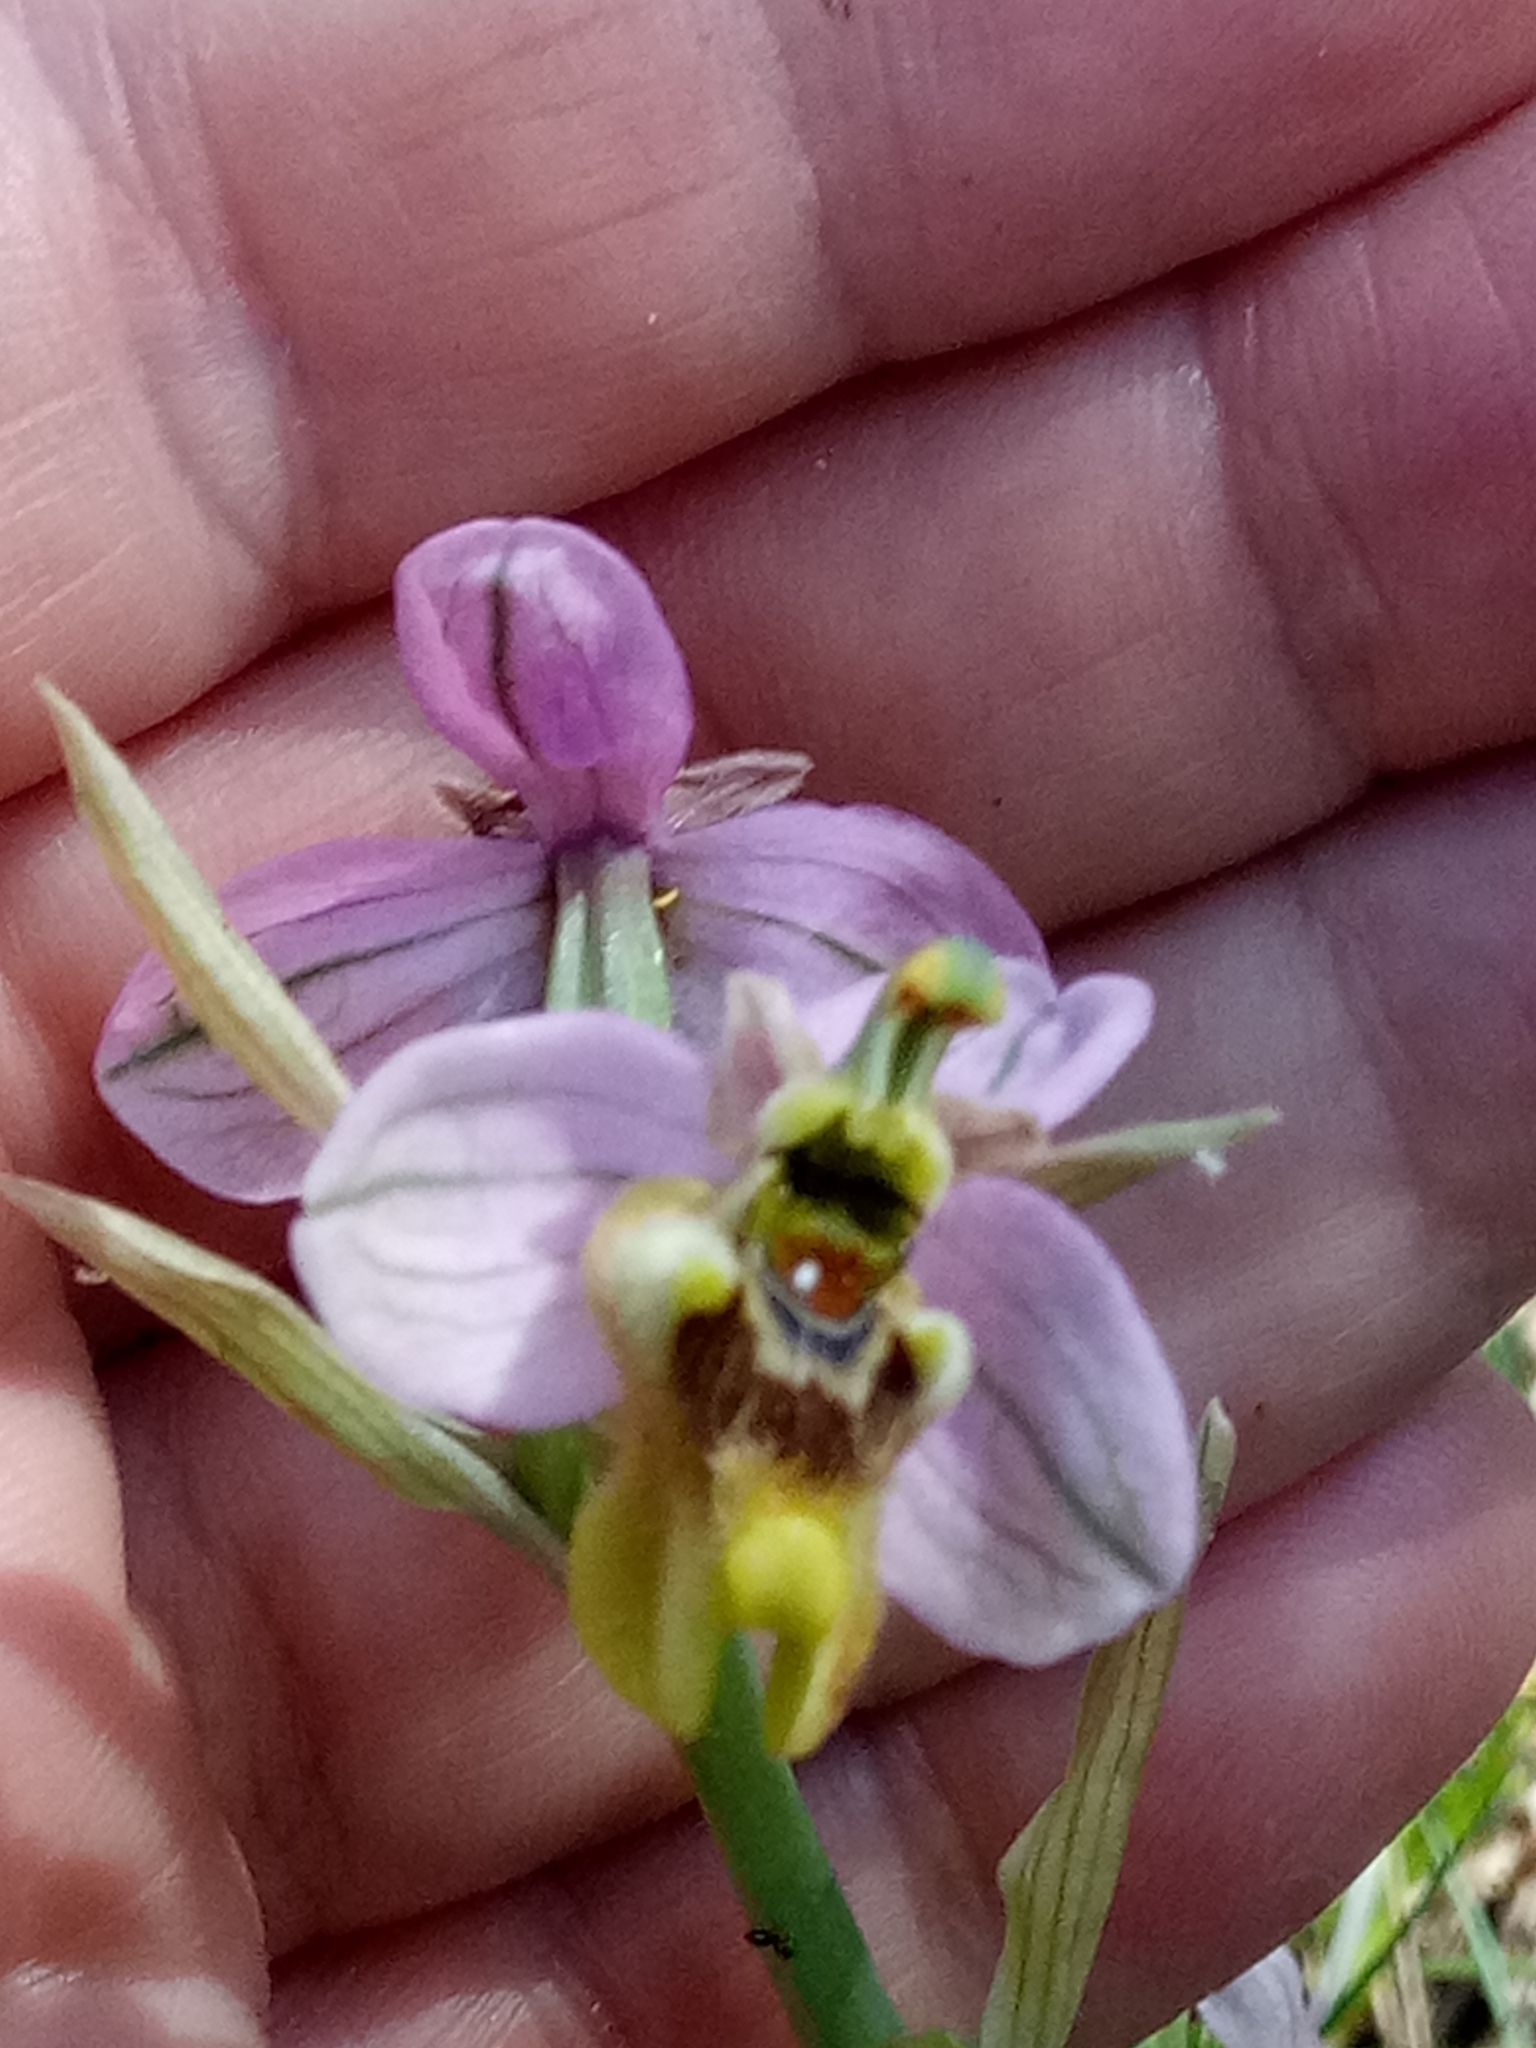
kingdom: Plantae
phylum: Tracheophyta
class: Liliopsida
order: Asparagales
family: Orchidaceae
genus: Ophrys
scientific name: Ophrys tenthredinifera
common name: Sawfly orchid
